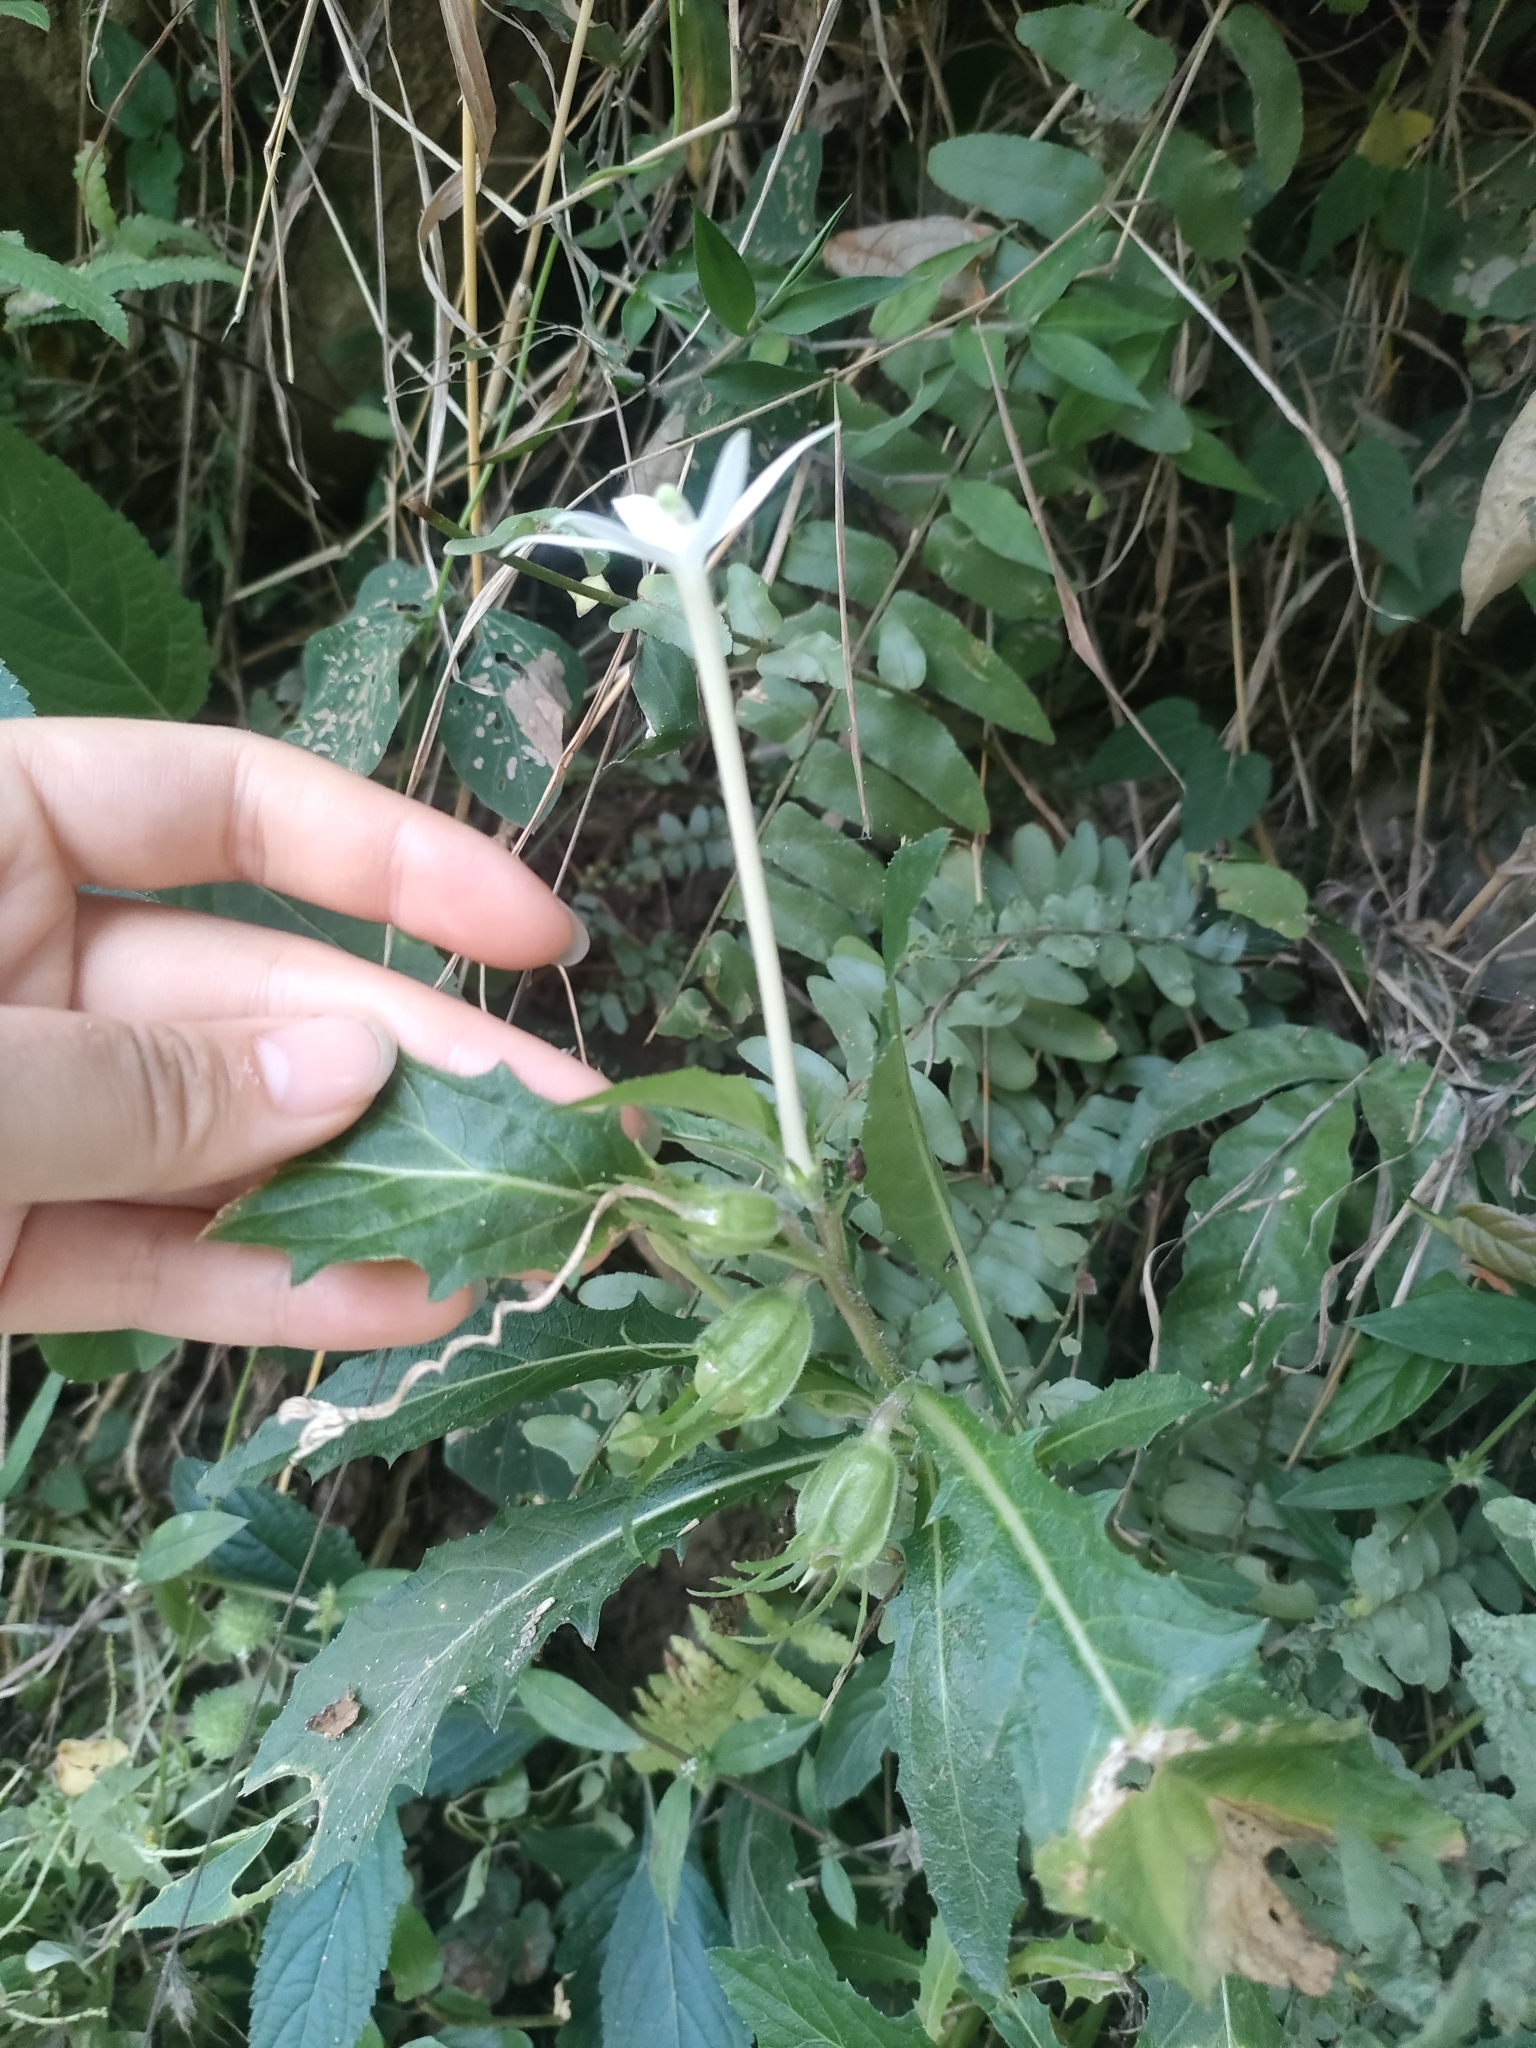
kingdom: Plantae
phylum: Tracheophyta
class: Magnoliopsida
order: Asterales
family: Campanulaceae
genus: Hippobroma
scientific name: Hippobroma longiflora
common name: Madamfate
